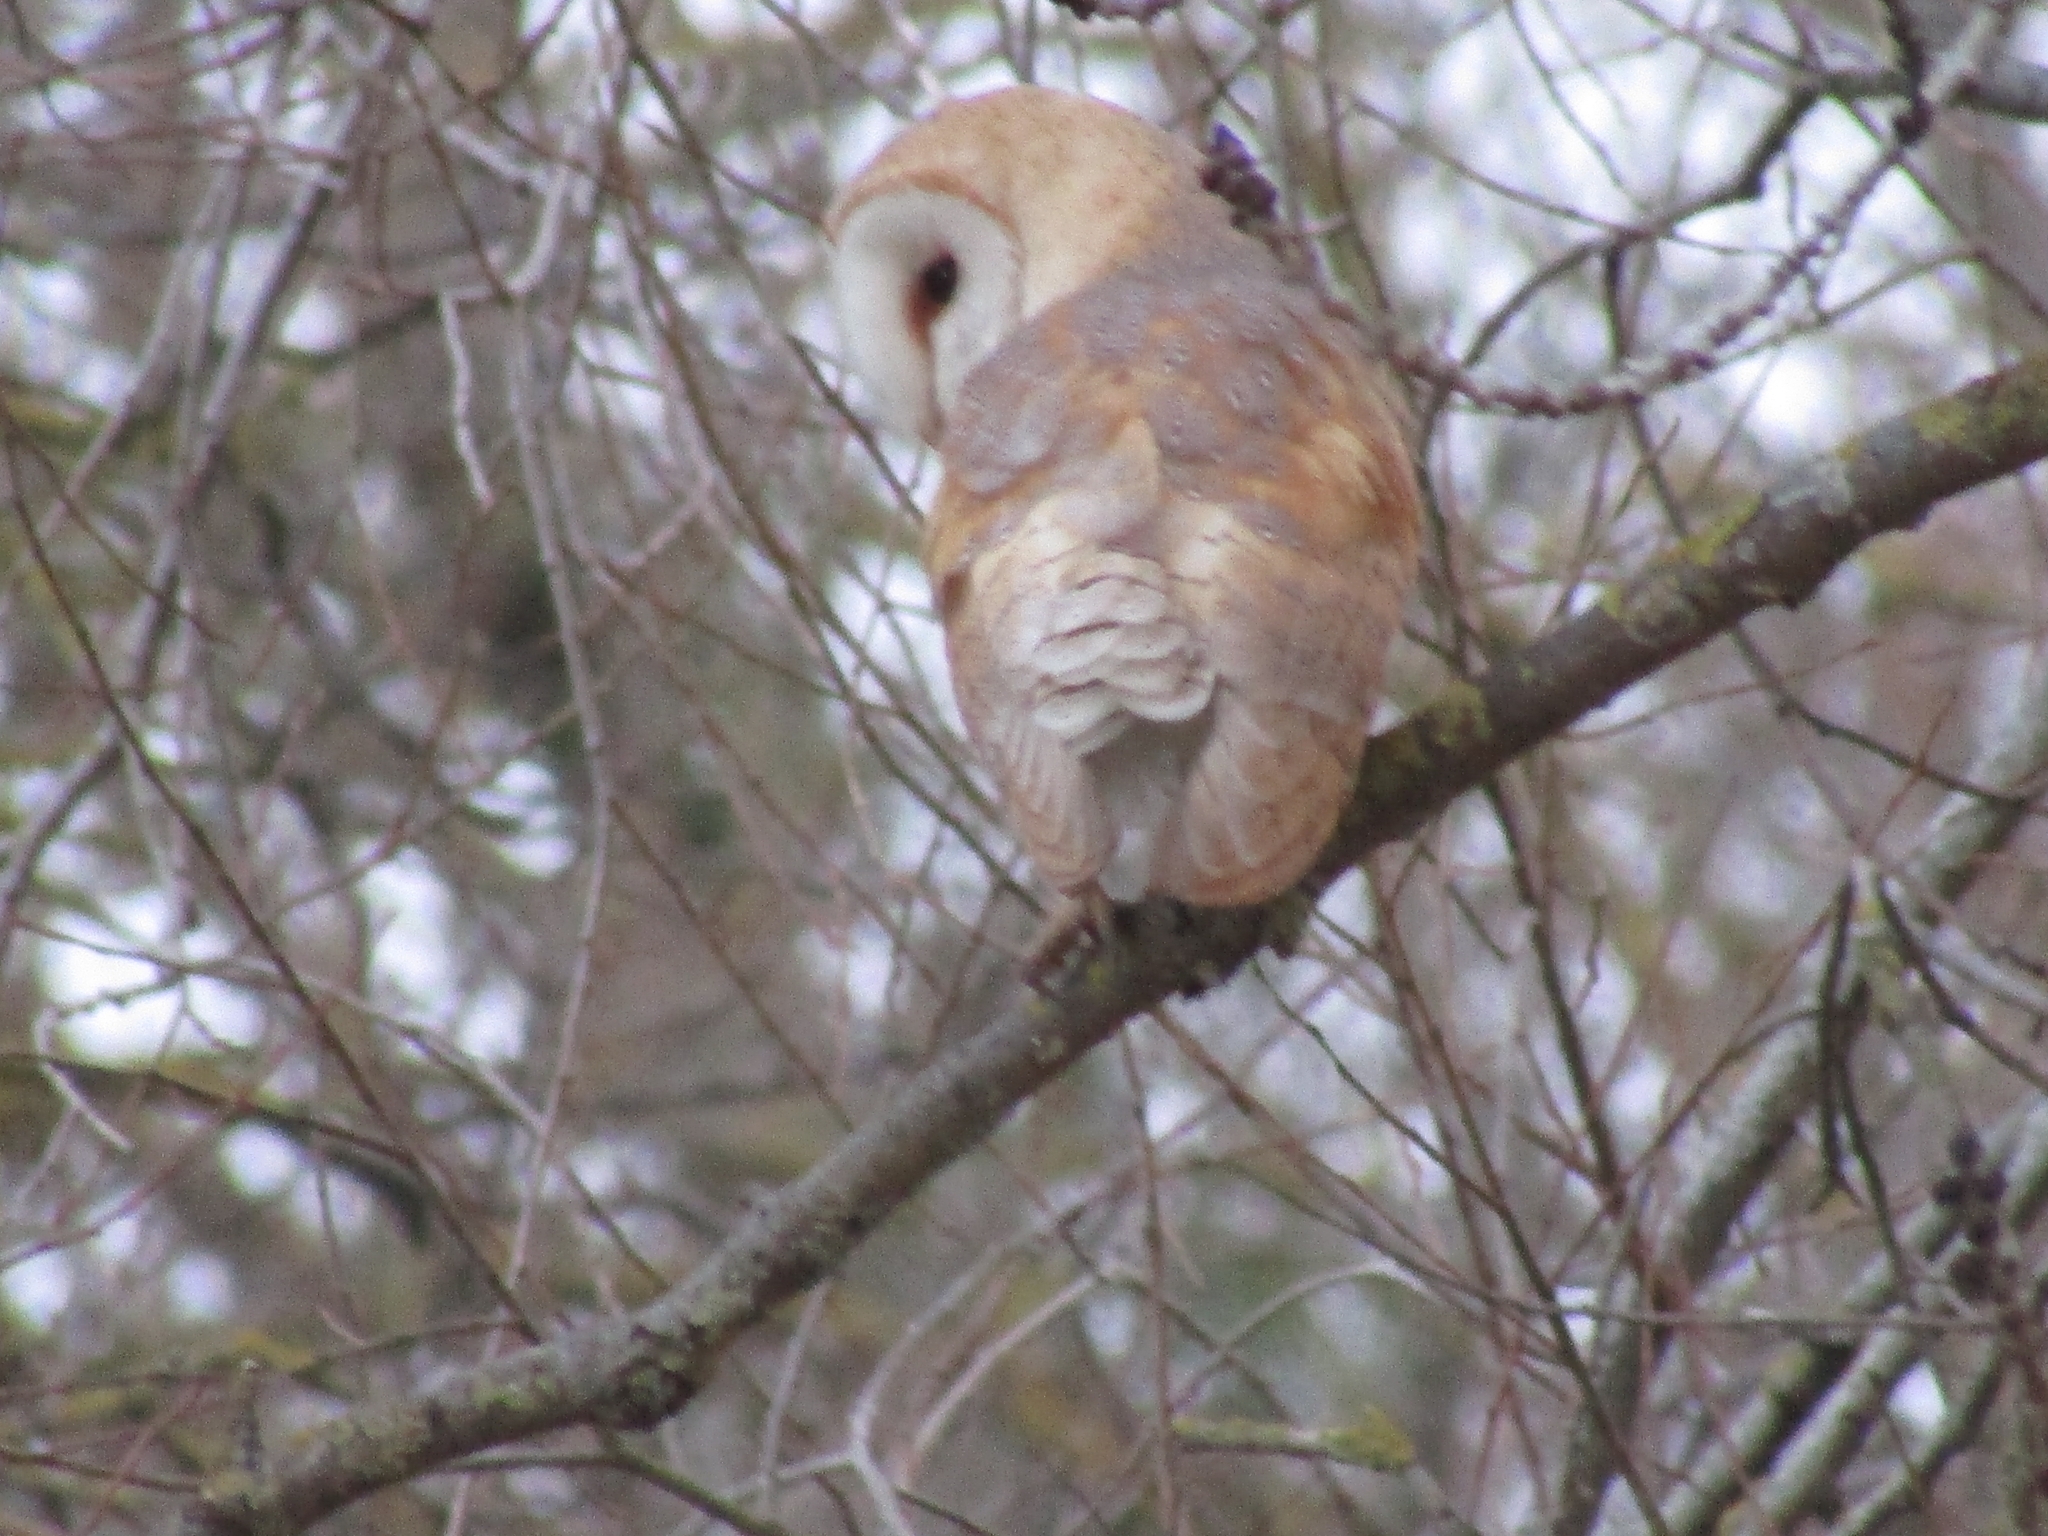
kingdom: Animalia
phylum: Chordata
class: Aves
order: Strigiformes
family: Tytonidae
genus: Tyto
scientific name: Tyto alba
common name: Barn owl
